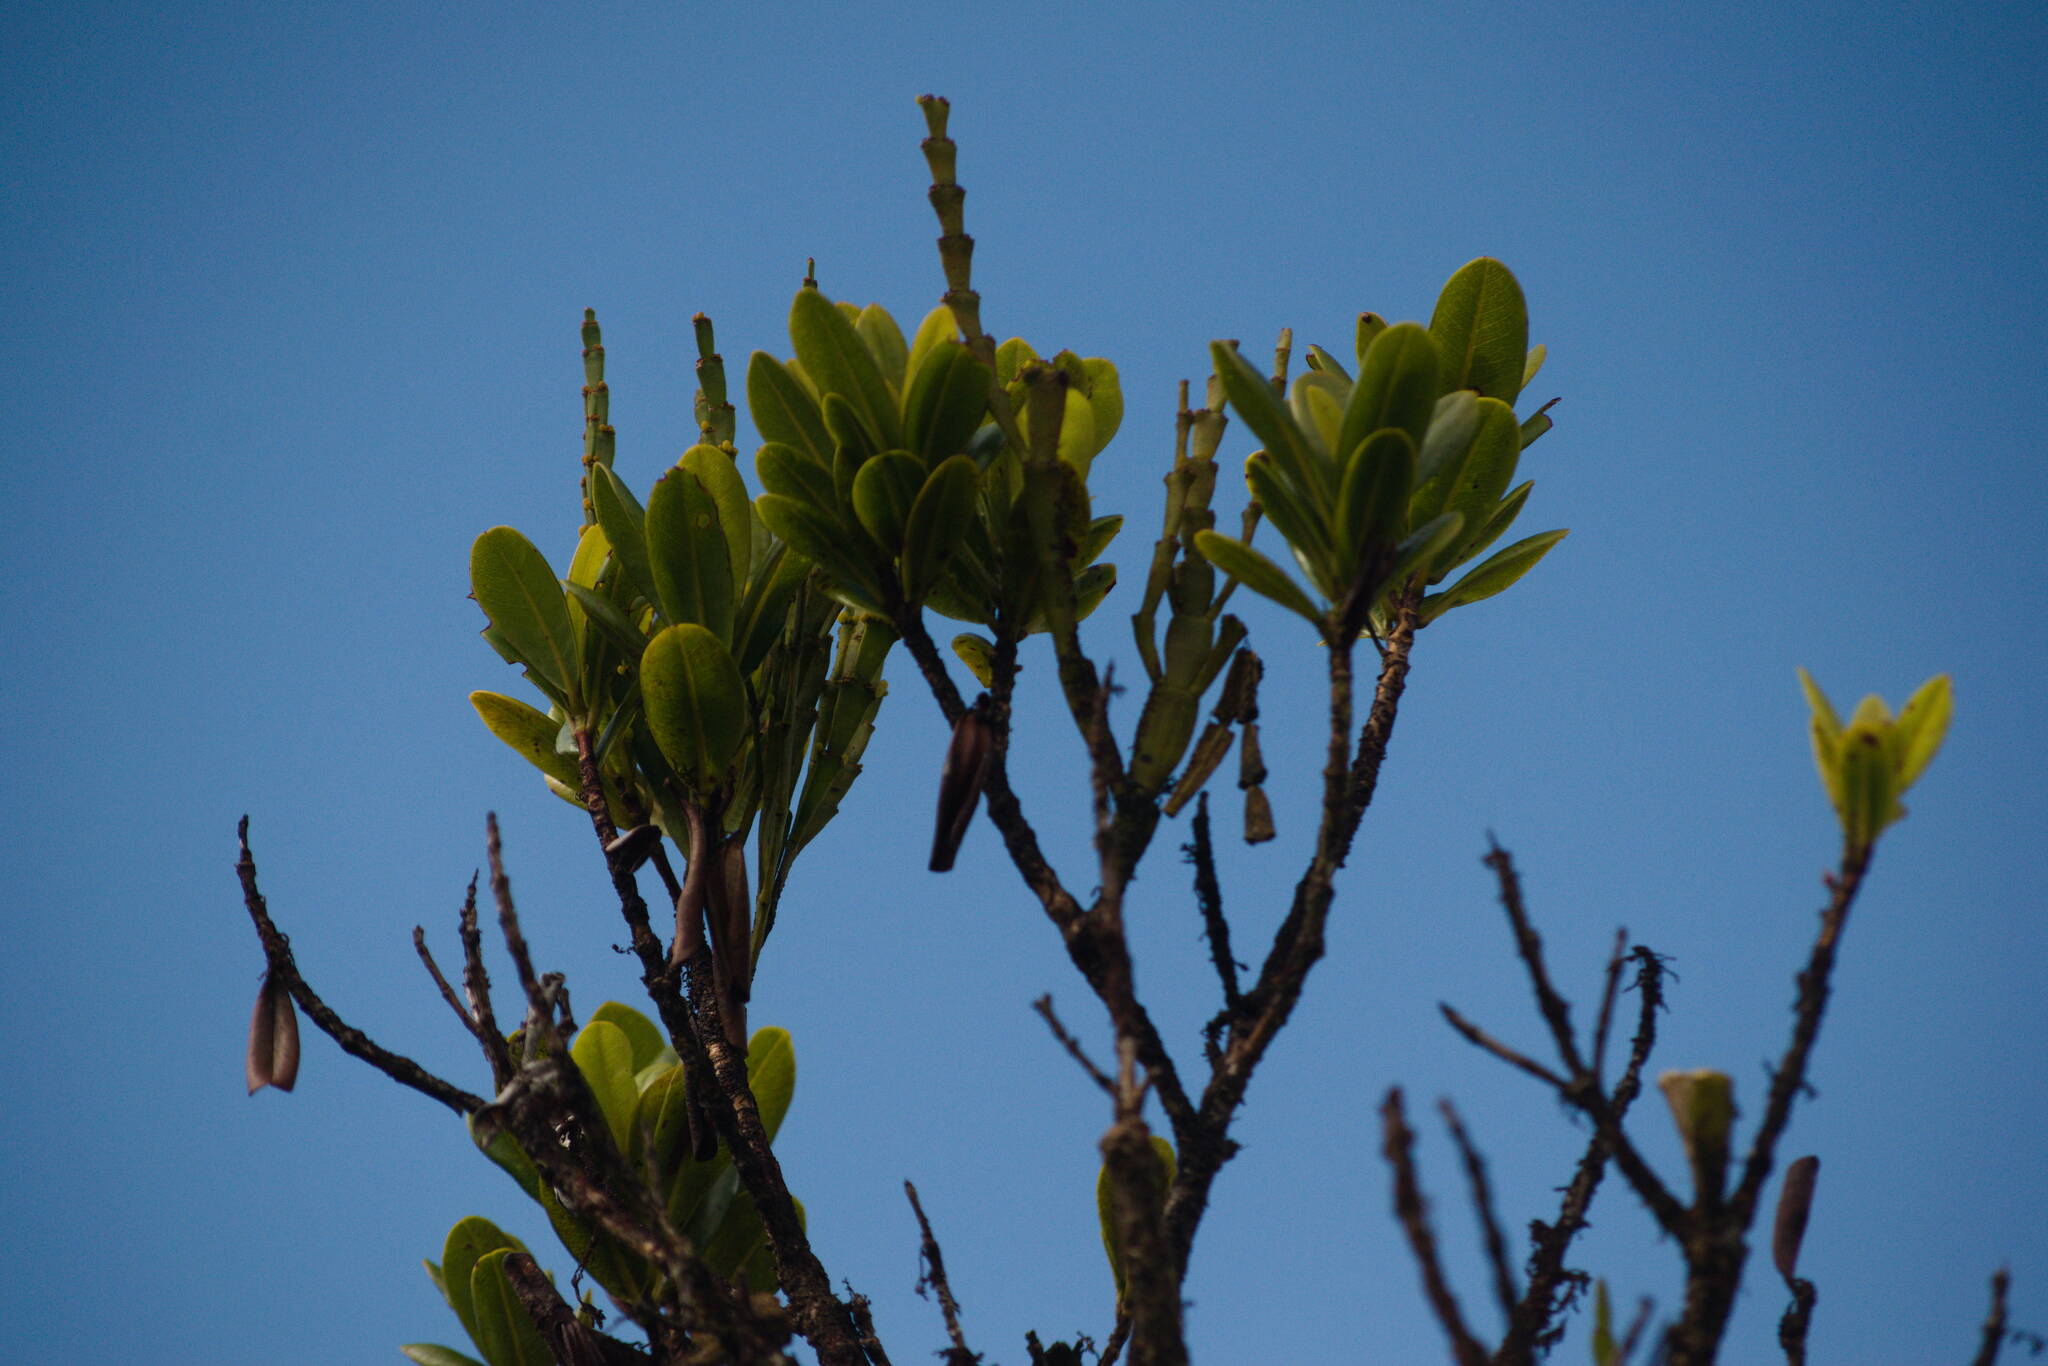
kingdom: Plantae
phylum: Tracheophyta
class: Magnoliopsida
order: Santalales
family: Viscaceae
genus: Korthalsella
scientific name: Korthalsella complanata
